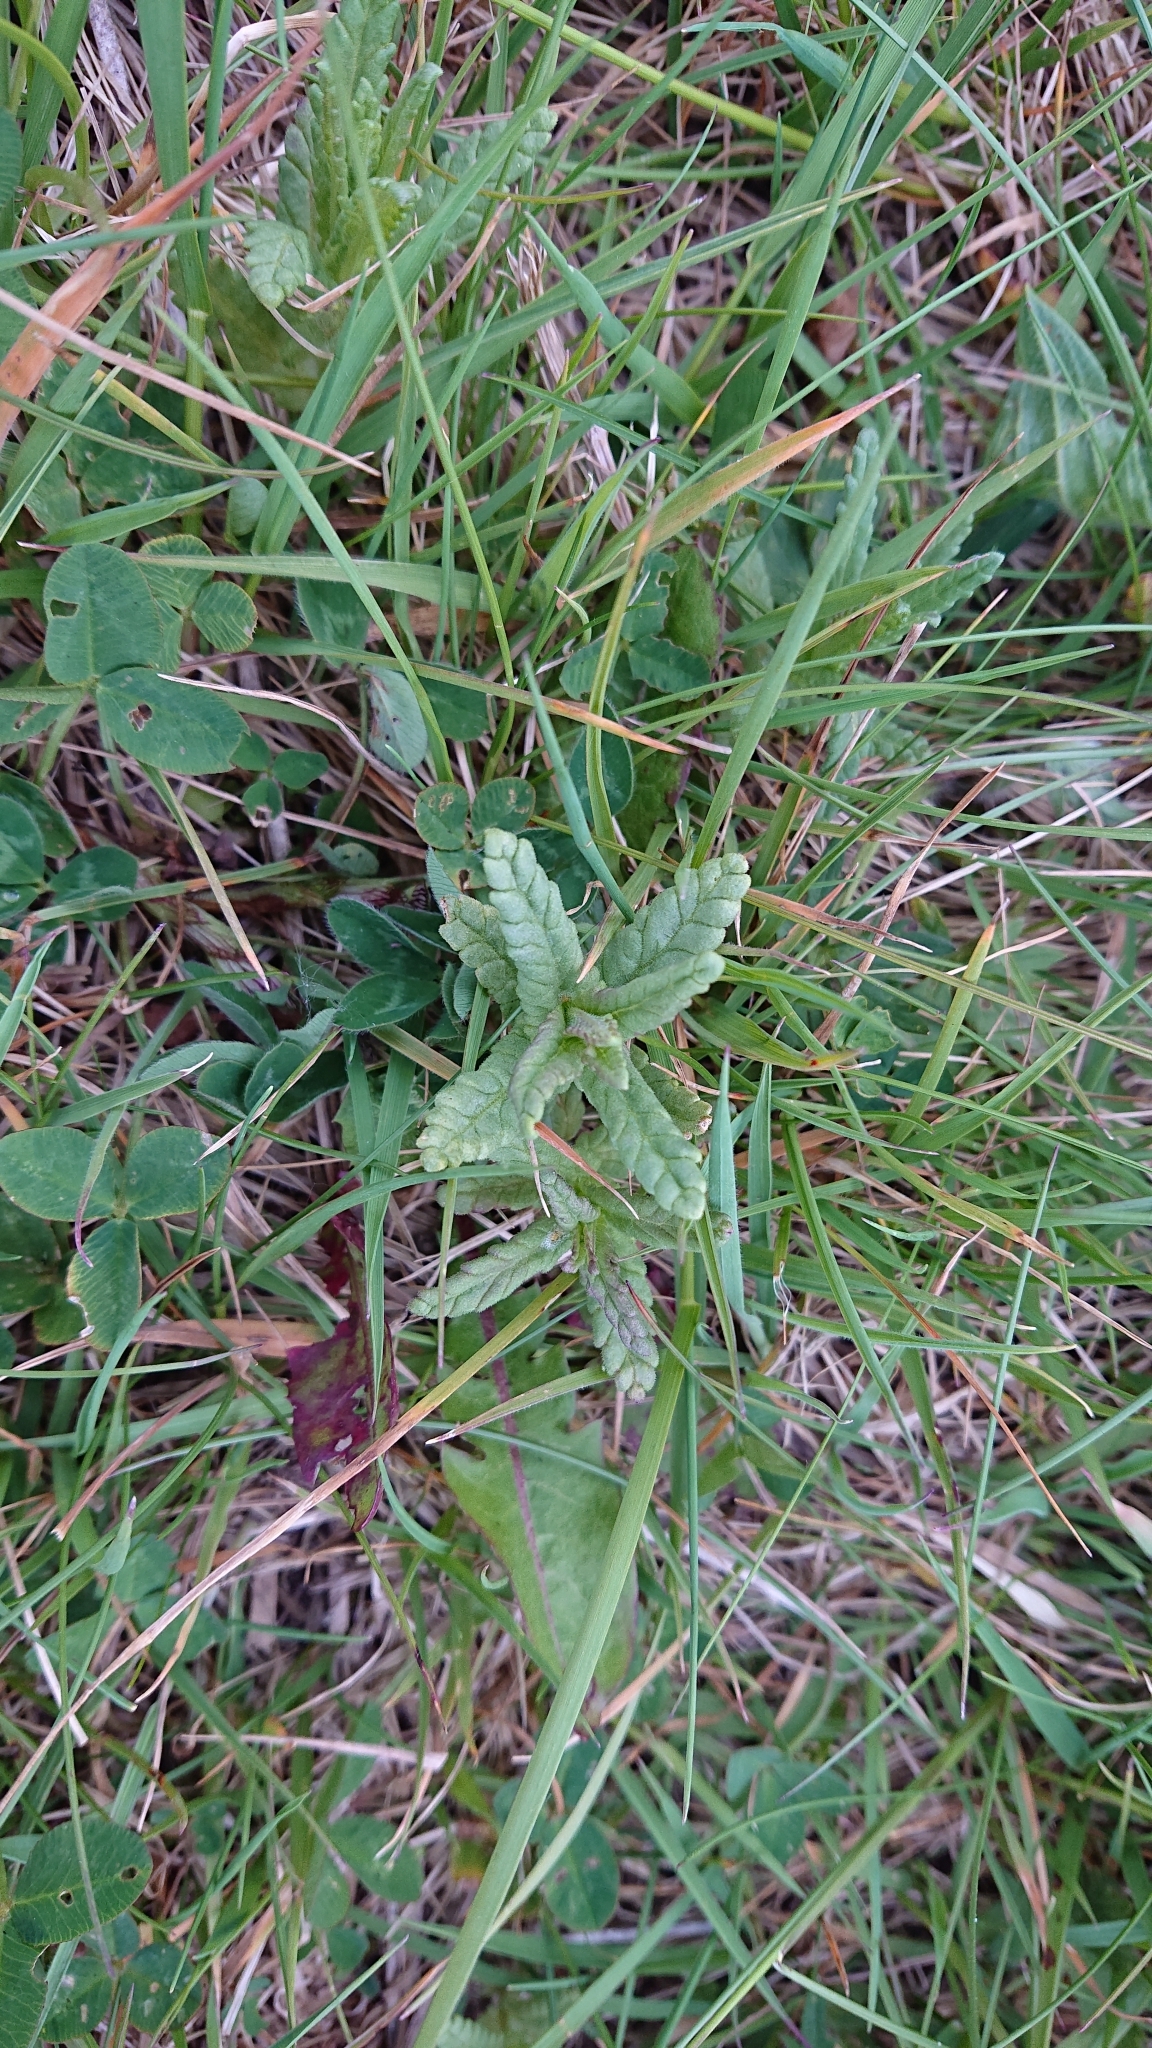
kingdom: Plantae
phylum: Tracheophyta
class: Magnoliopsida
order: Lamiales
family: Orobanchaceae
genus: Rhinanthus
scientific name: Rhinanthus minor
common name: Yellow-rattle
